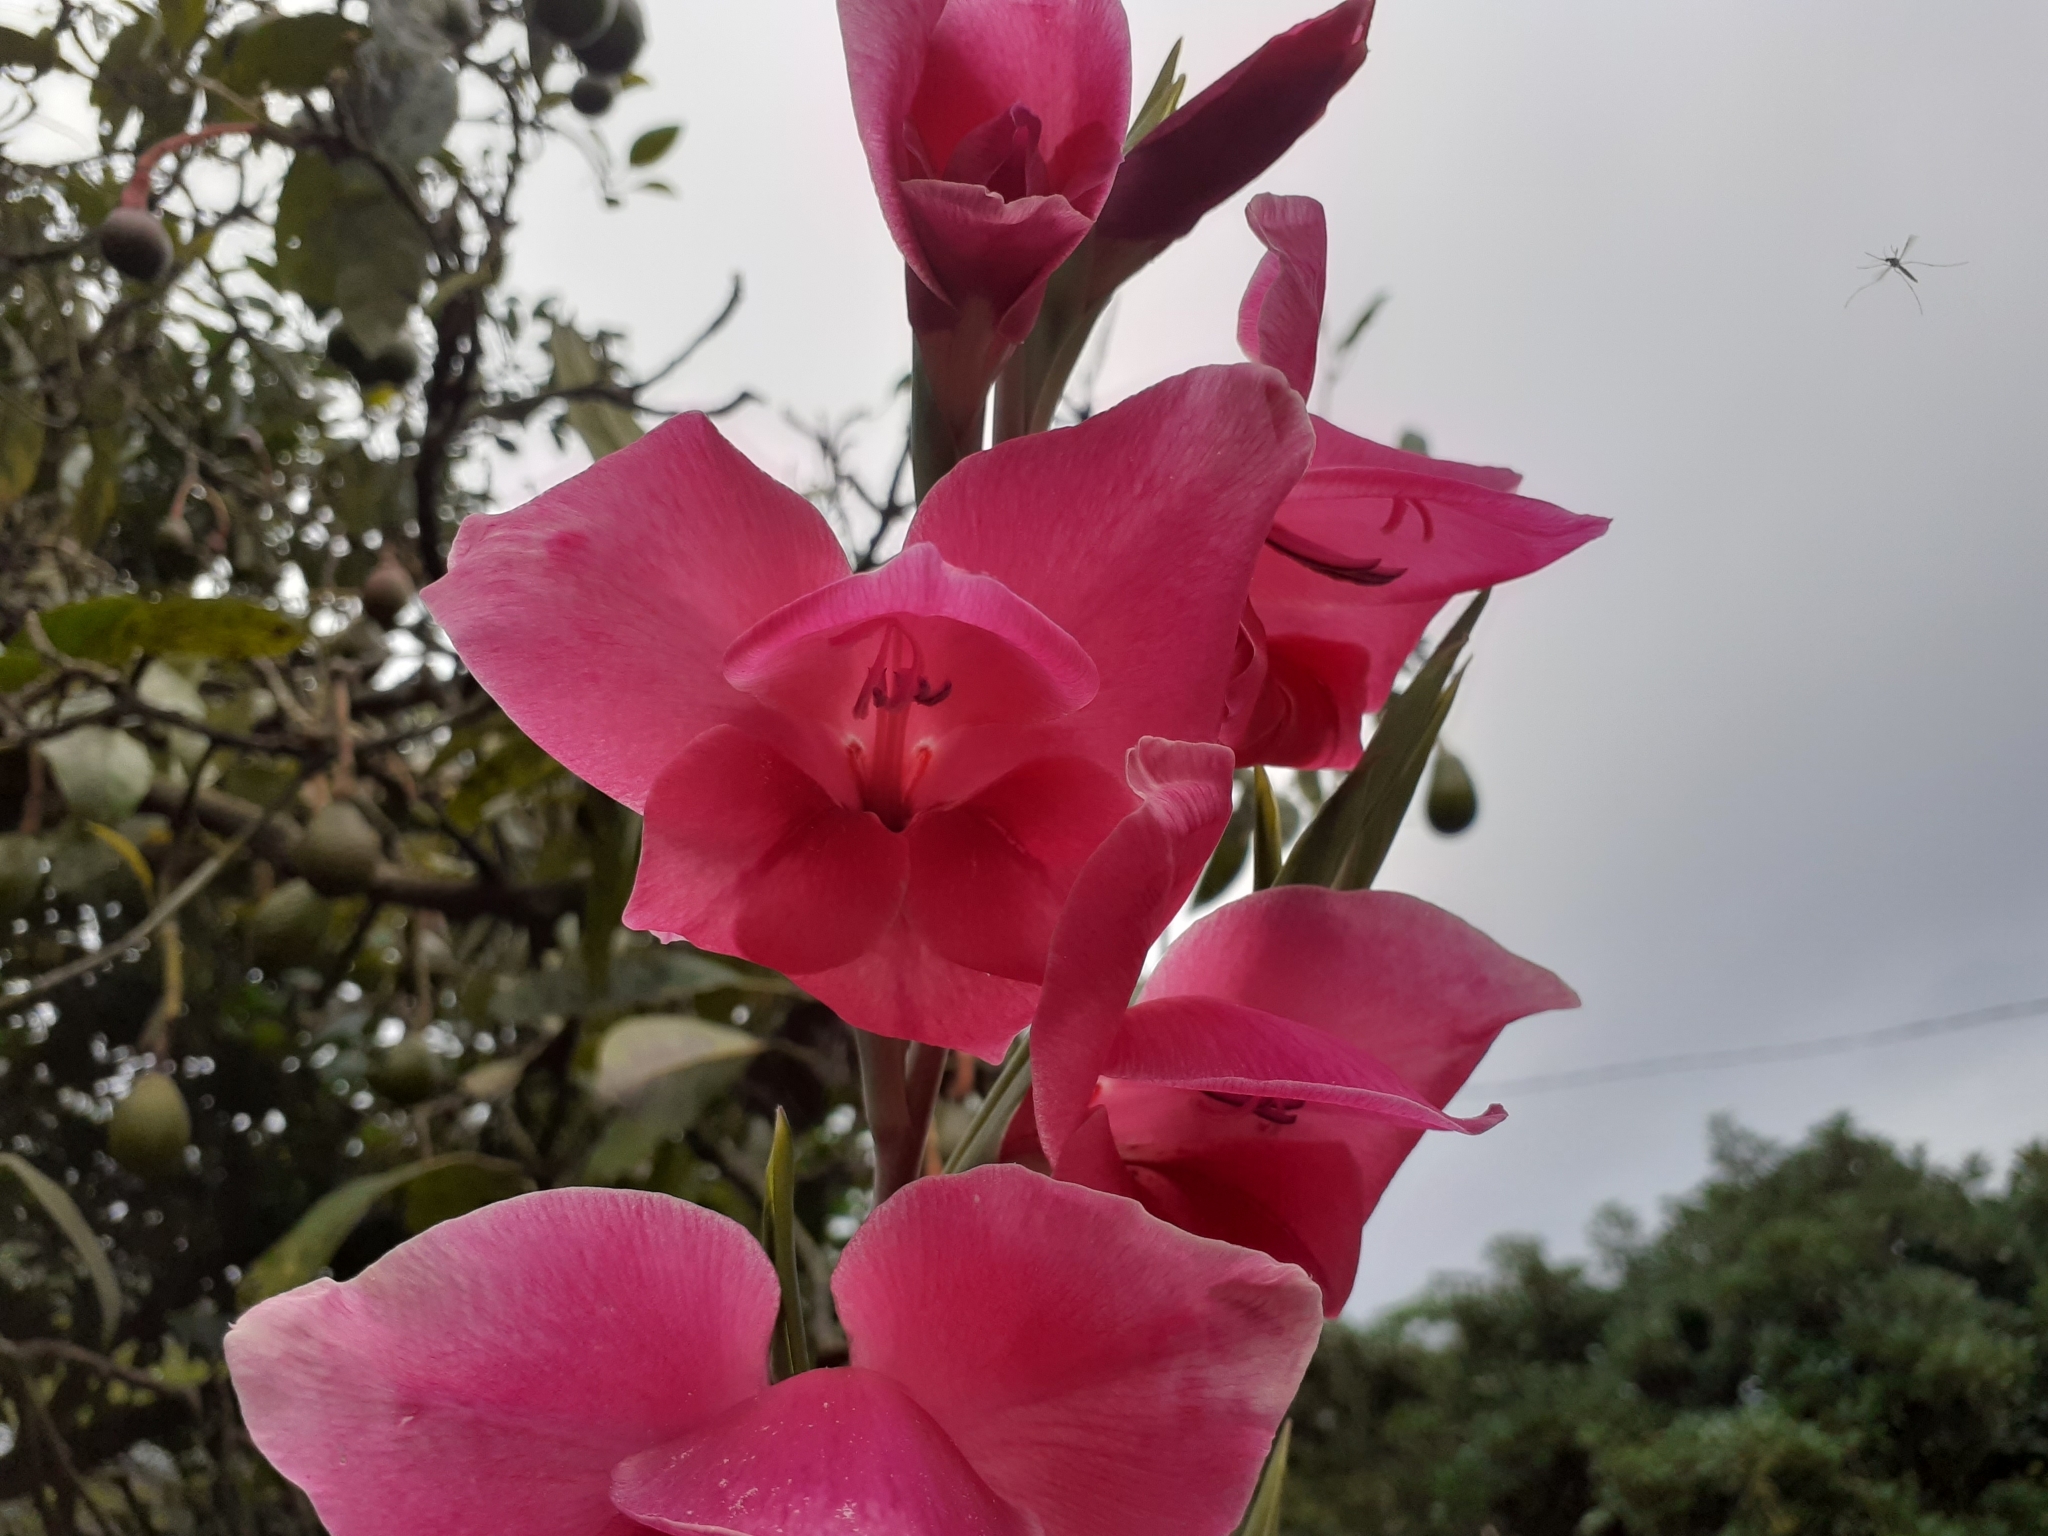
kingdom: Plantae
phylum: Tracheophyta
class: Liliopsida
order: Asparagales
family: Iridaceae
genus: Gladiolus
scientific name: Gladiolus hortulanus
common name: Large-flowered gladiolus
